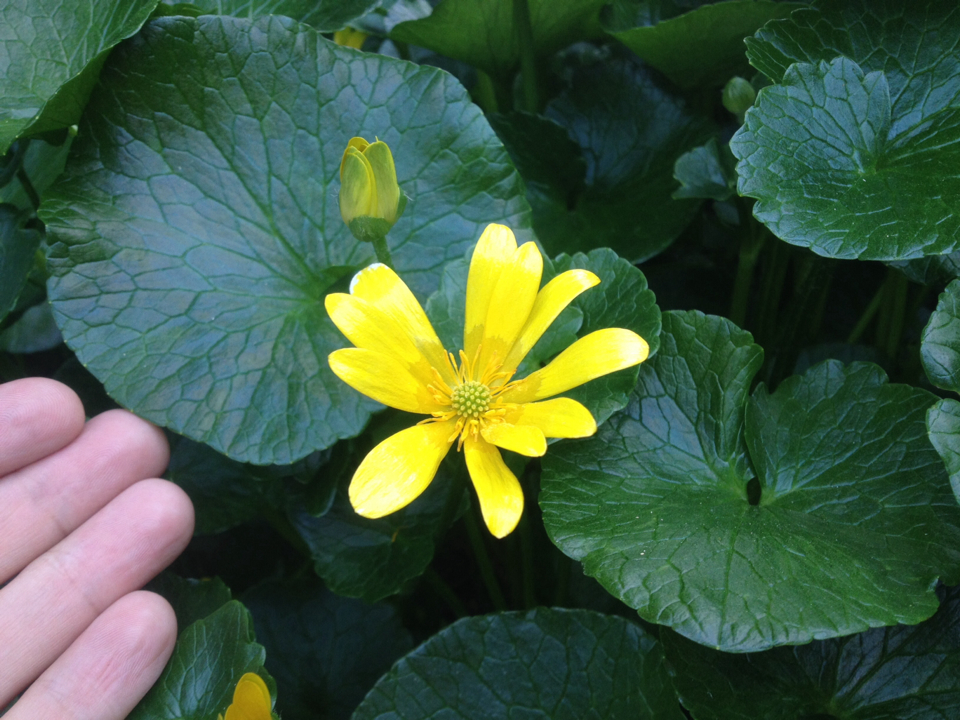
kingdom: Plantae
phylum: Tracheophyta
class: Magnoliopsida
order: Ranunculales
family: Ranunculaceae
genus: Ficaria
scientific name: Ficaria grandiflora
